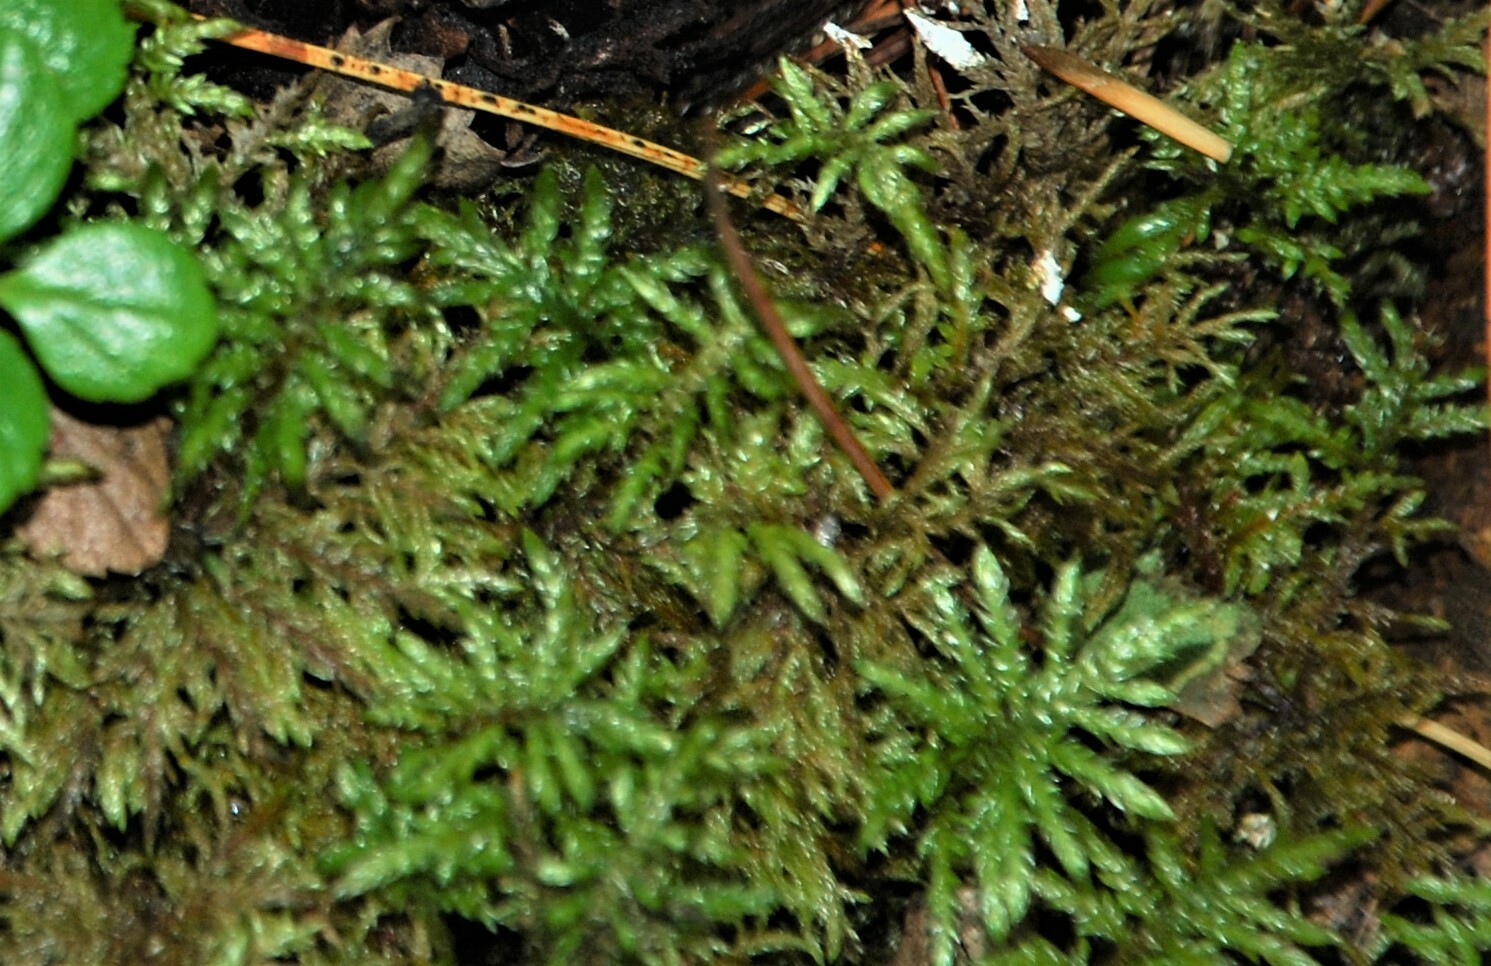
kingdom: Plantae
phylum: Bryophyta
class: Bryopsida
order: Hypnales
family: Hylocomiaceae
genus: Pleurozium
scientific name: Pleurozium schreberi
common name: Red-stemmed feather moss
